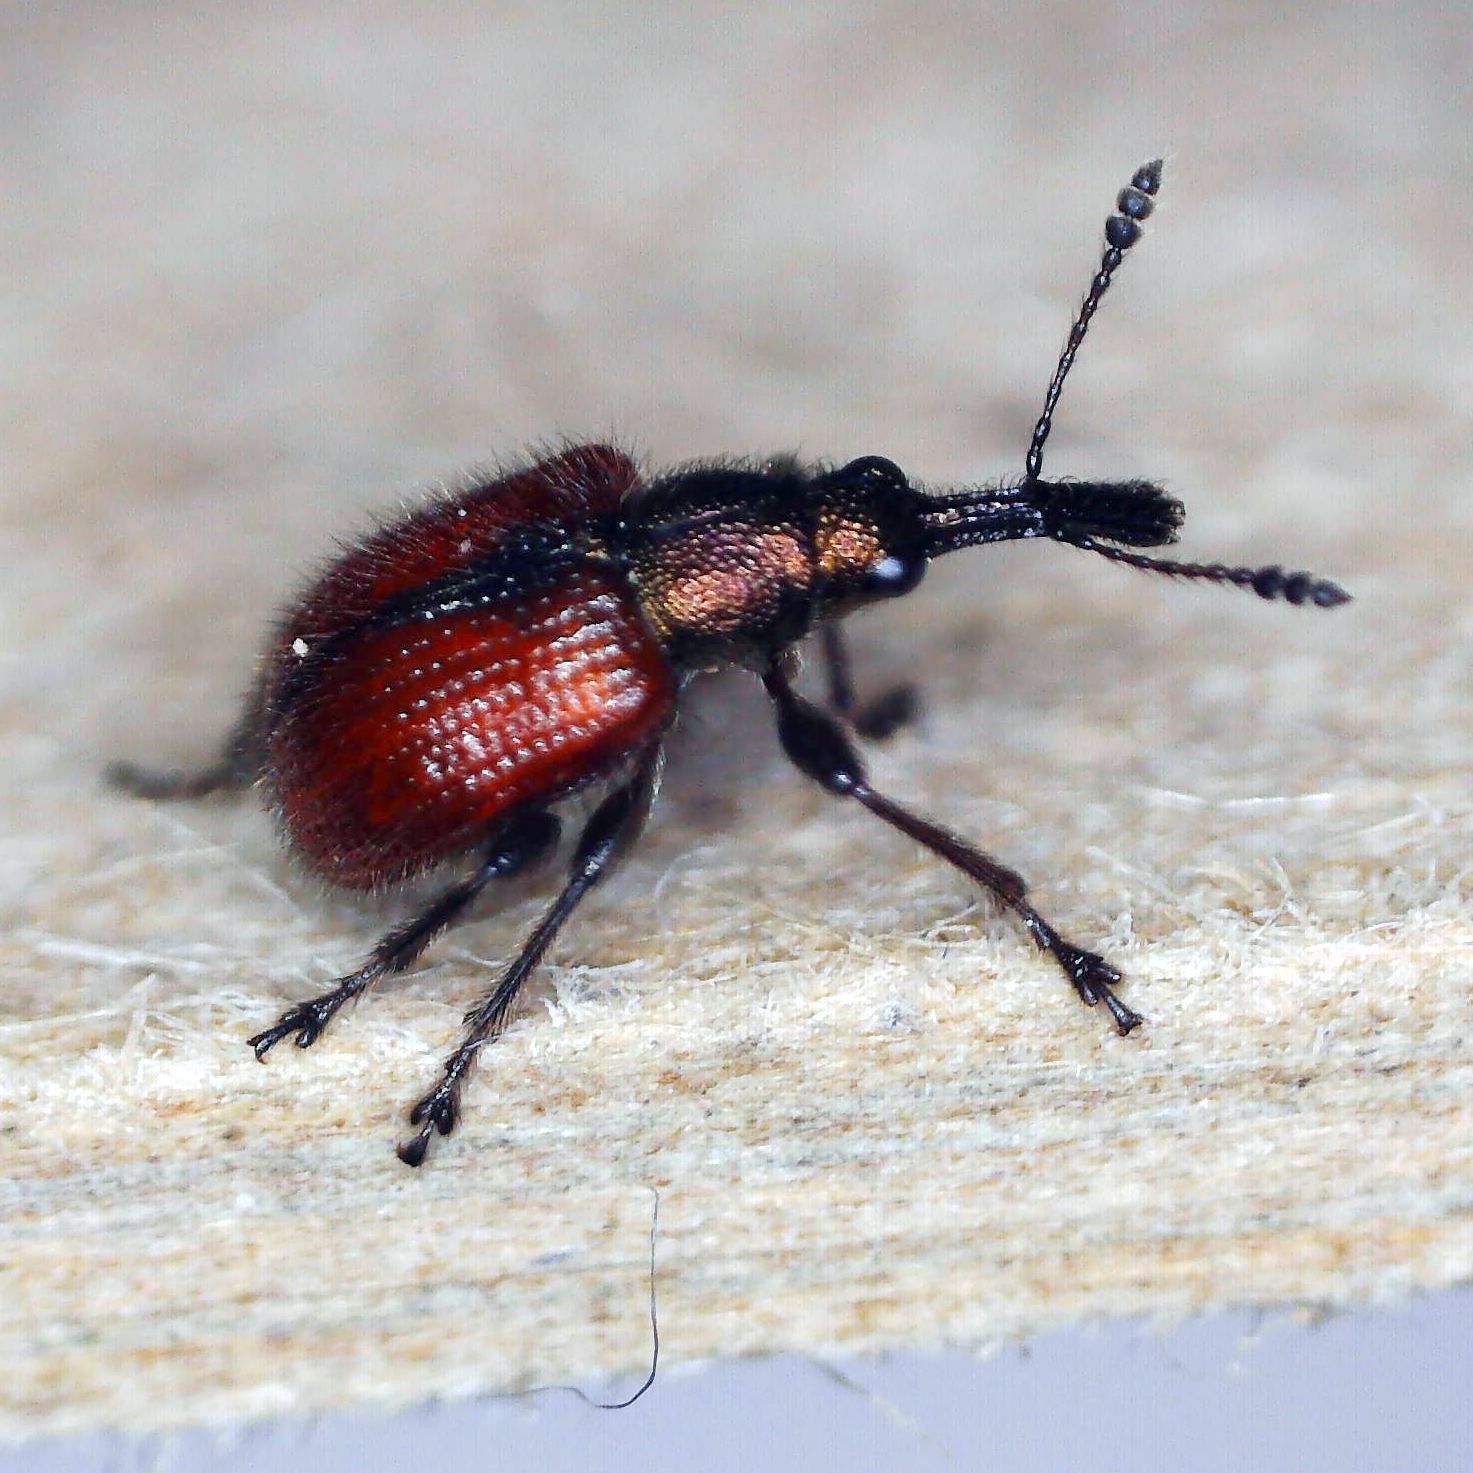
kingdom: Animalia
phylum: Arthropoda
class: Insecta
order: Coleoptera
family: Rhynchitidae
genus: Tatianaerhynchites
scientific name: Tatianaerhynchites aequatus
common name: Apple fruit rhynchites
